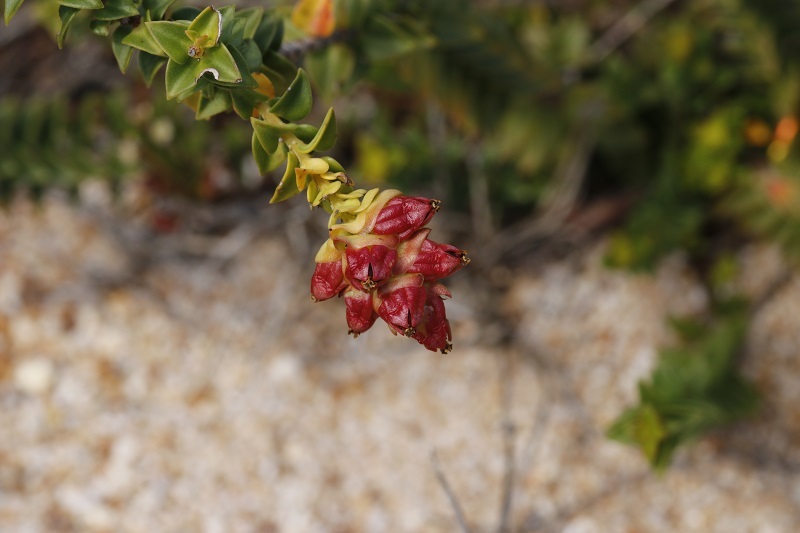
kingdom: Plantae
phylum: Tracheophyta
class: Magnoliopsida
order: Myrtales
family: Penaeaceae
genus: Penaea
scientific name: Penaea mucronata
